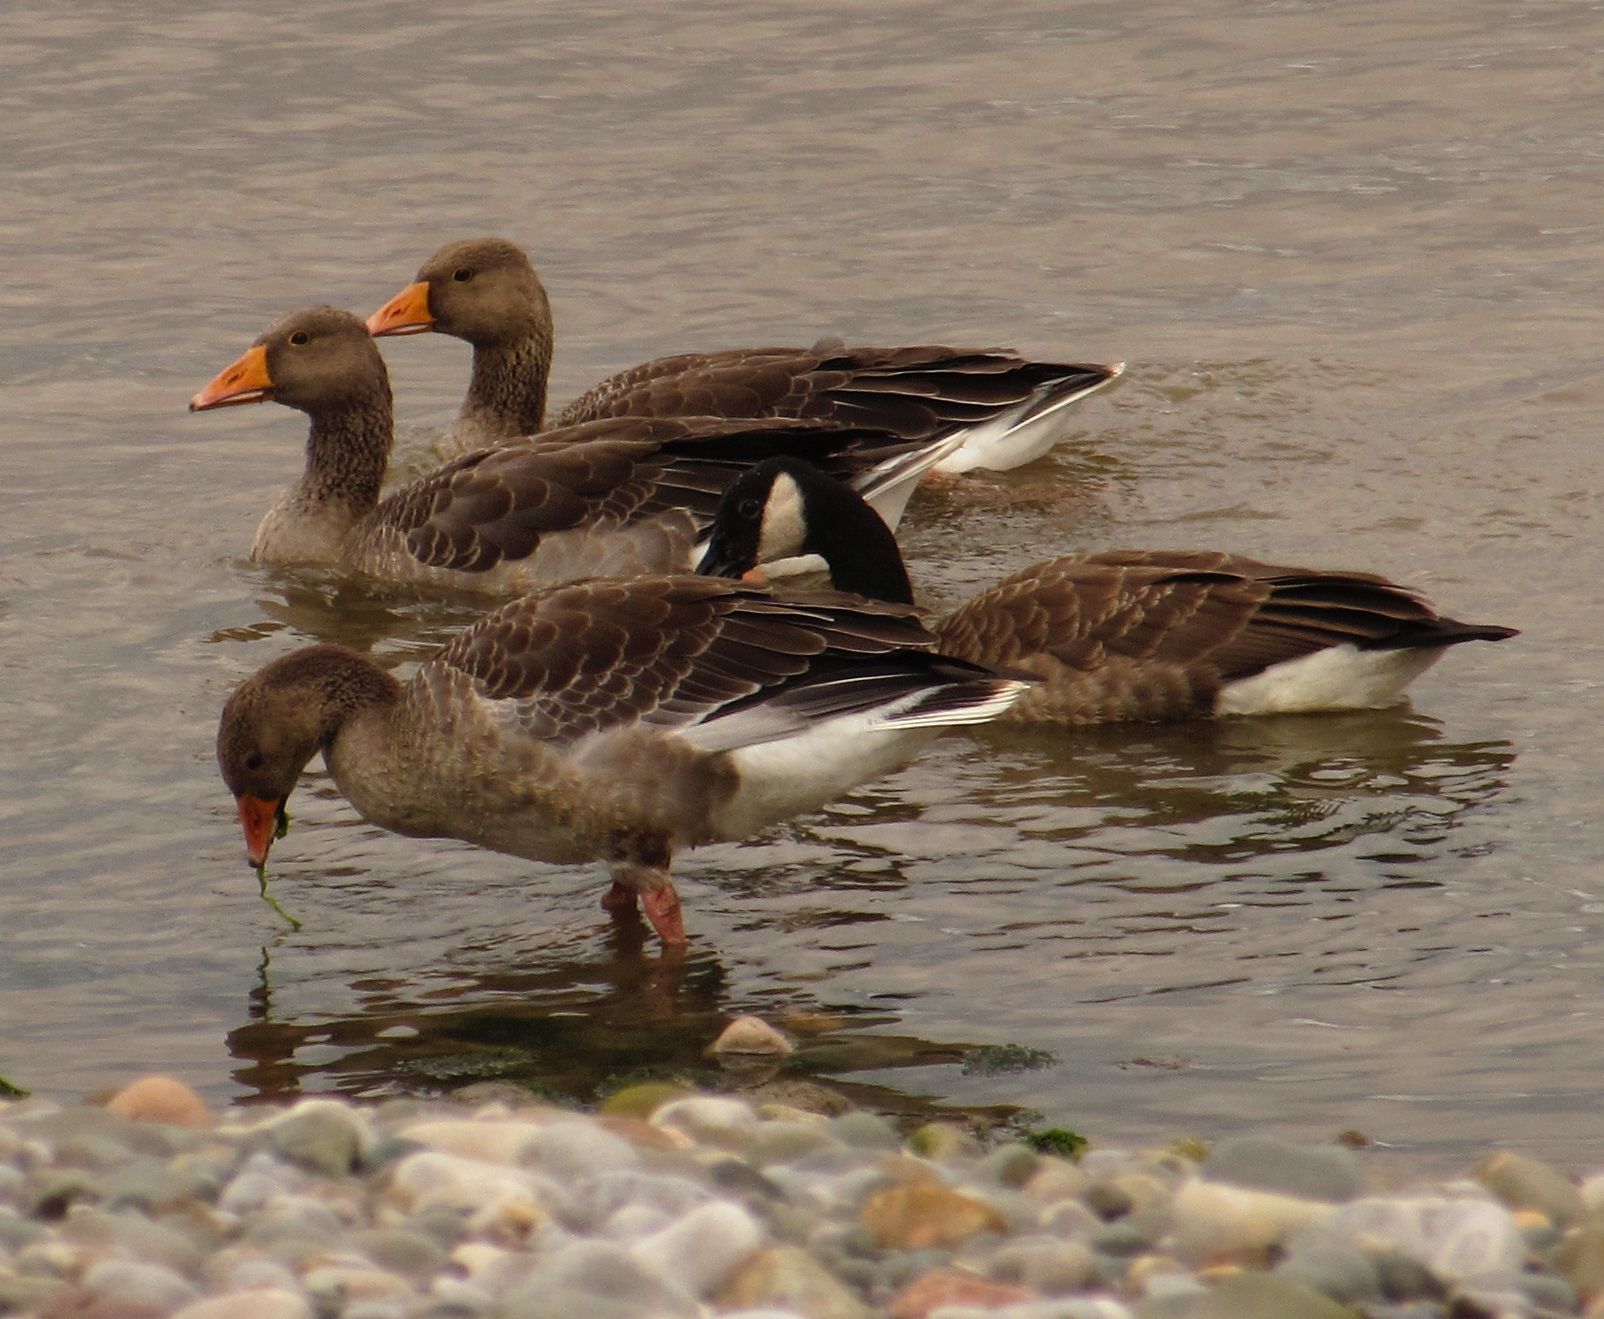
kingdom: Animalia
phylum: Chordata
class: Aves
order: Anseriformes
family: Anatidae
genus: Anser
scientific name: Anser anser
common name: Greylag goose
